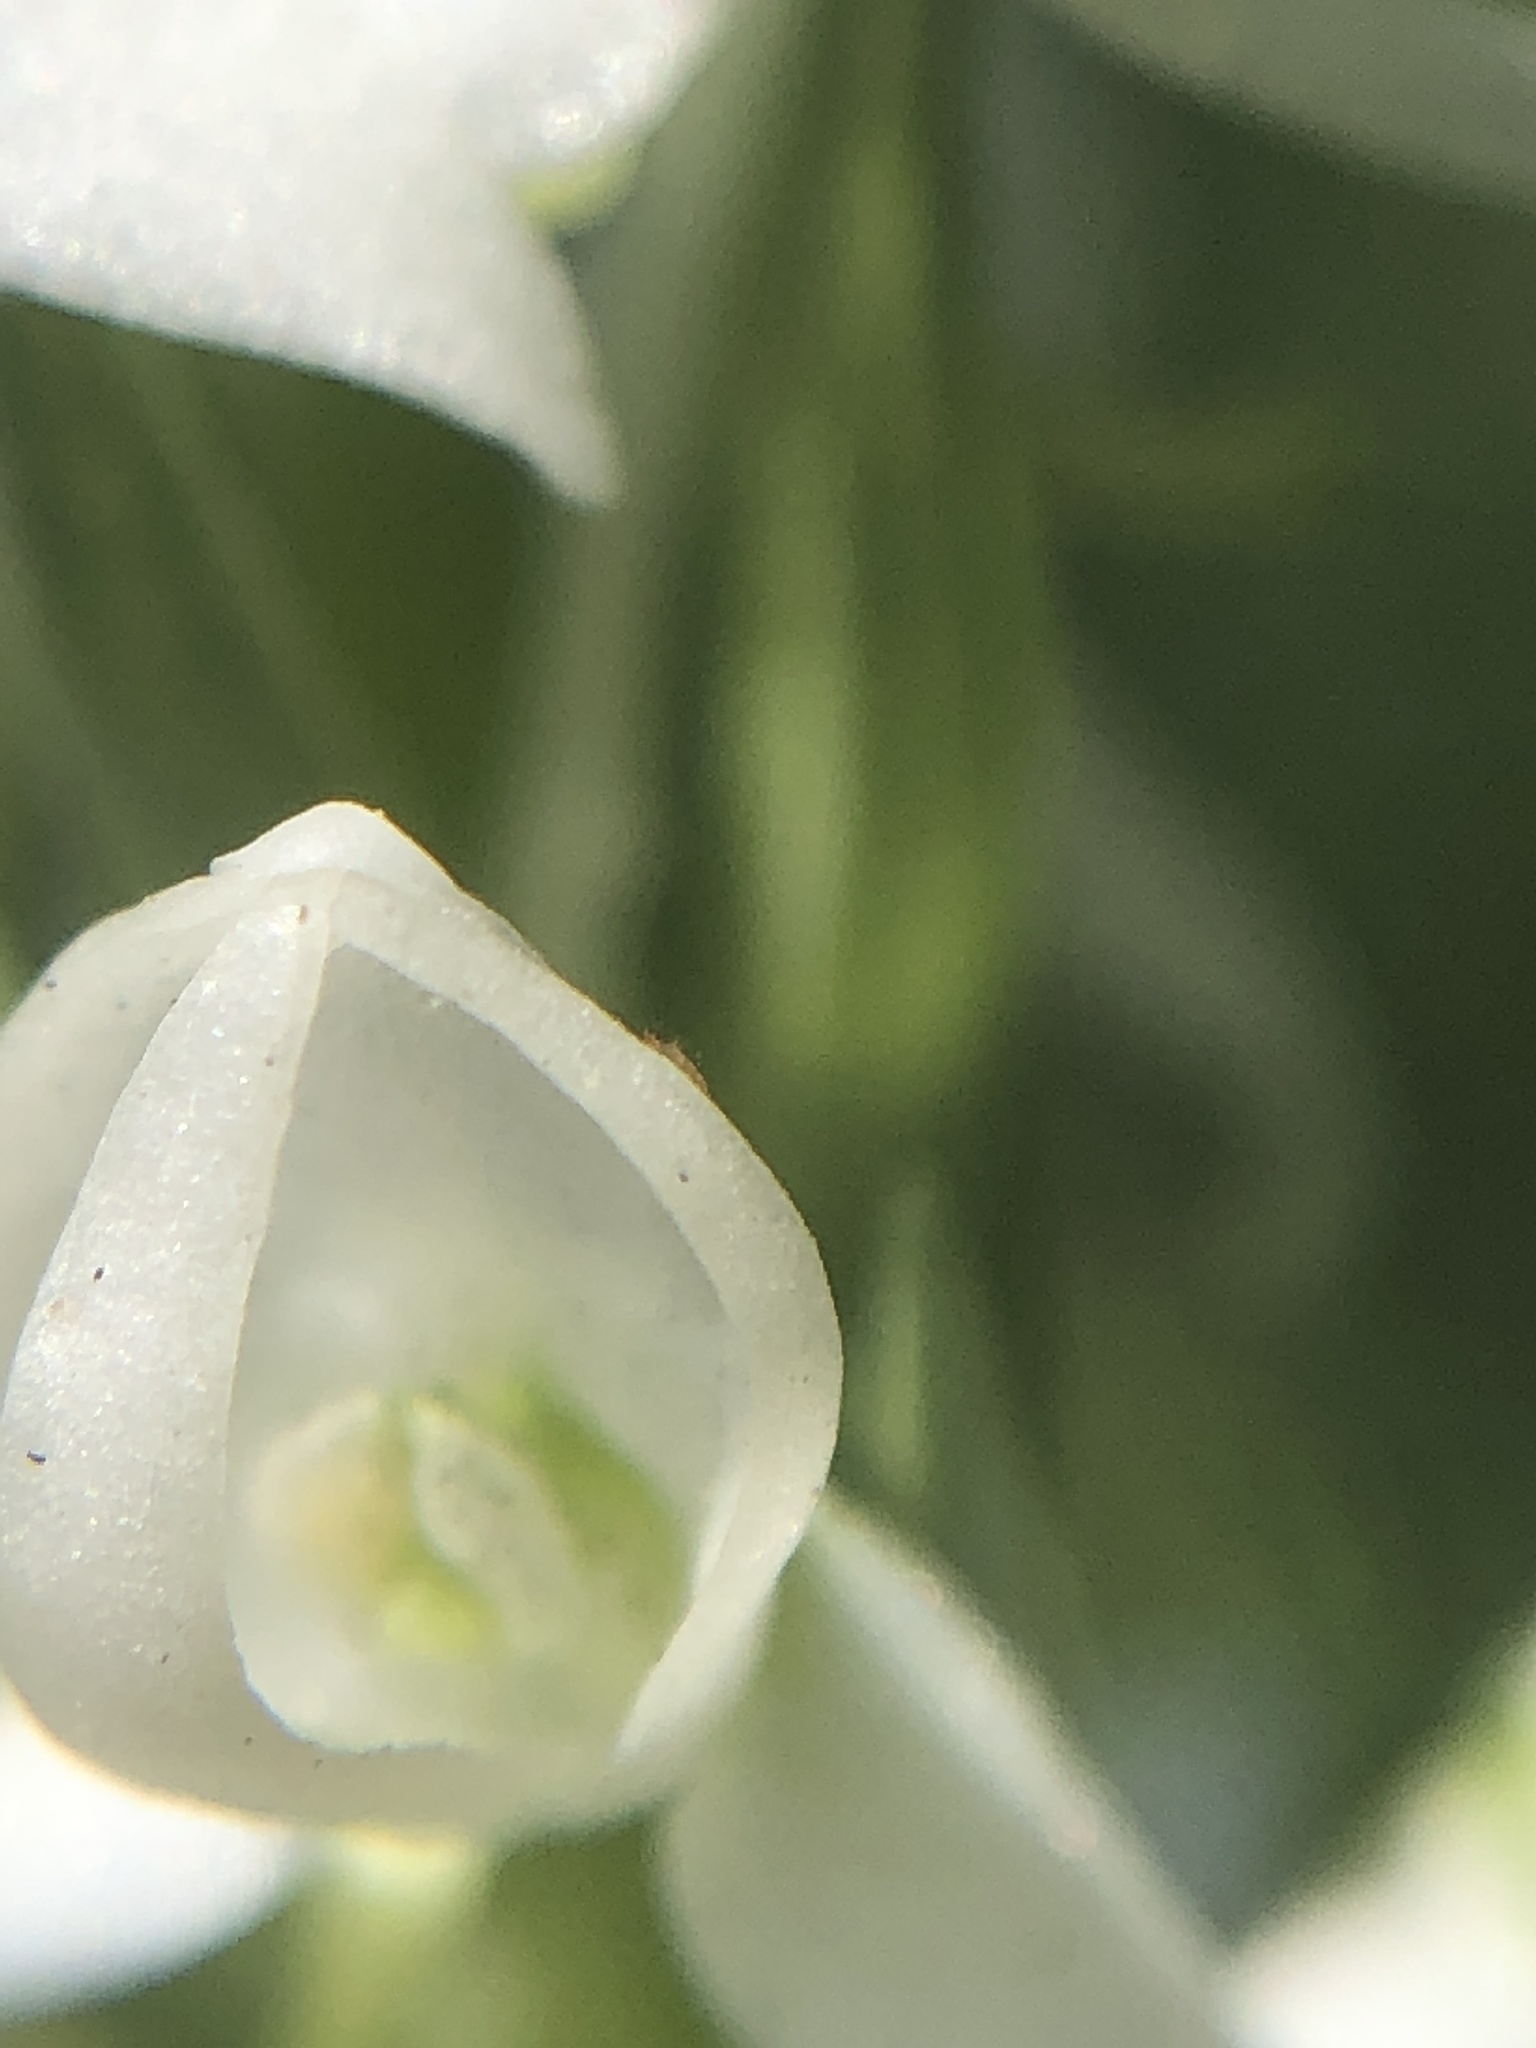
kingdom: Plantae
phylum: Tracheophyta
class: Liliopsida
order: Asparagales
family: Orchidaceae
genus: Platanthera
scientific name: Platanthera dilatata
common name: Bog candles
